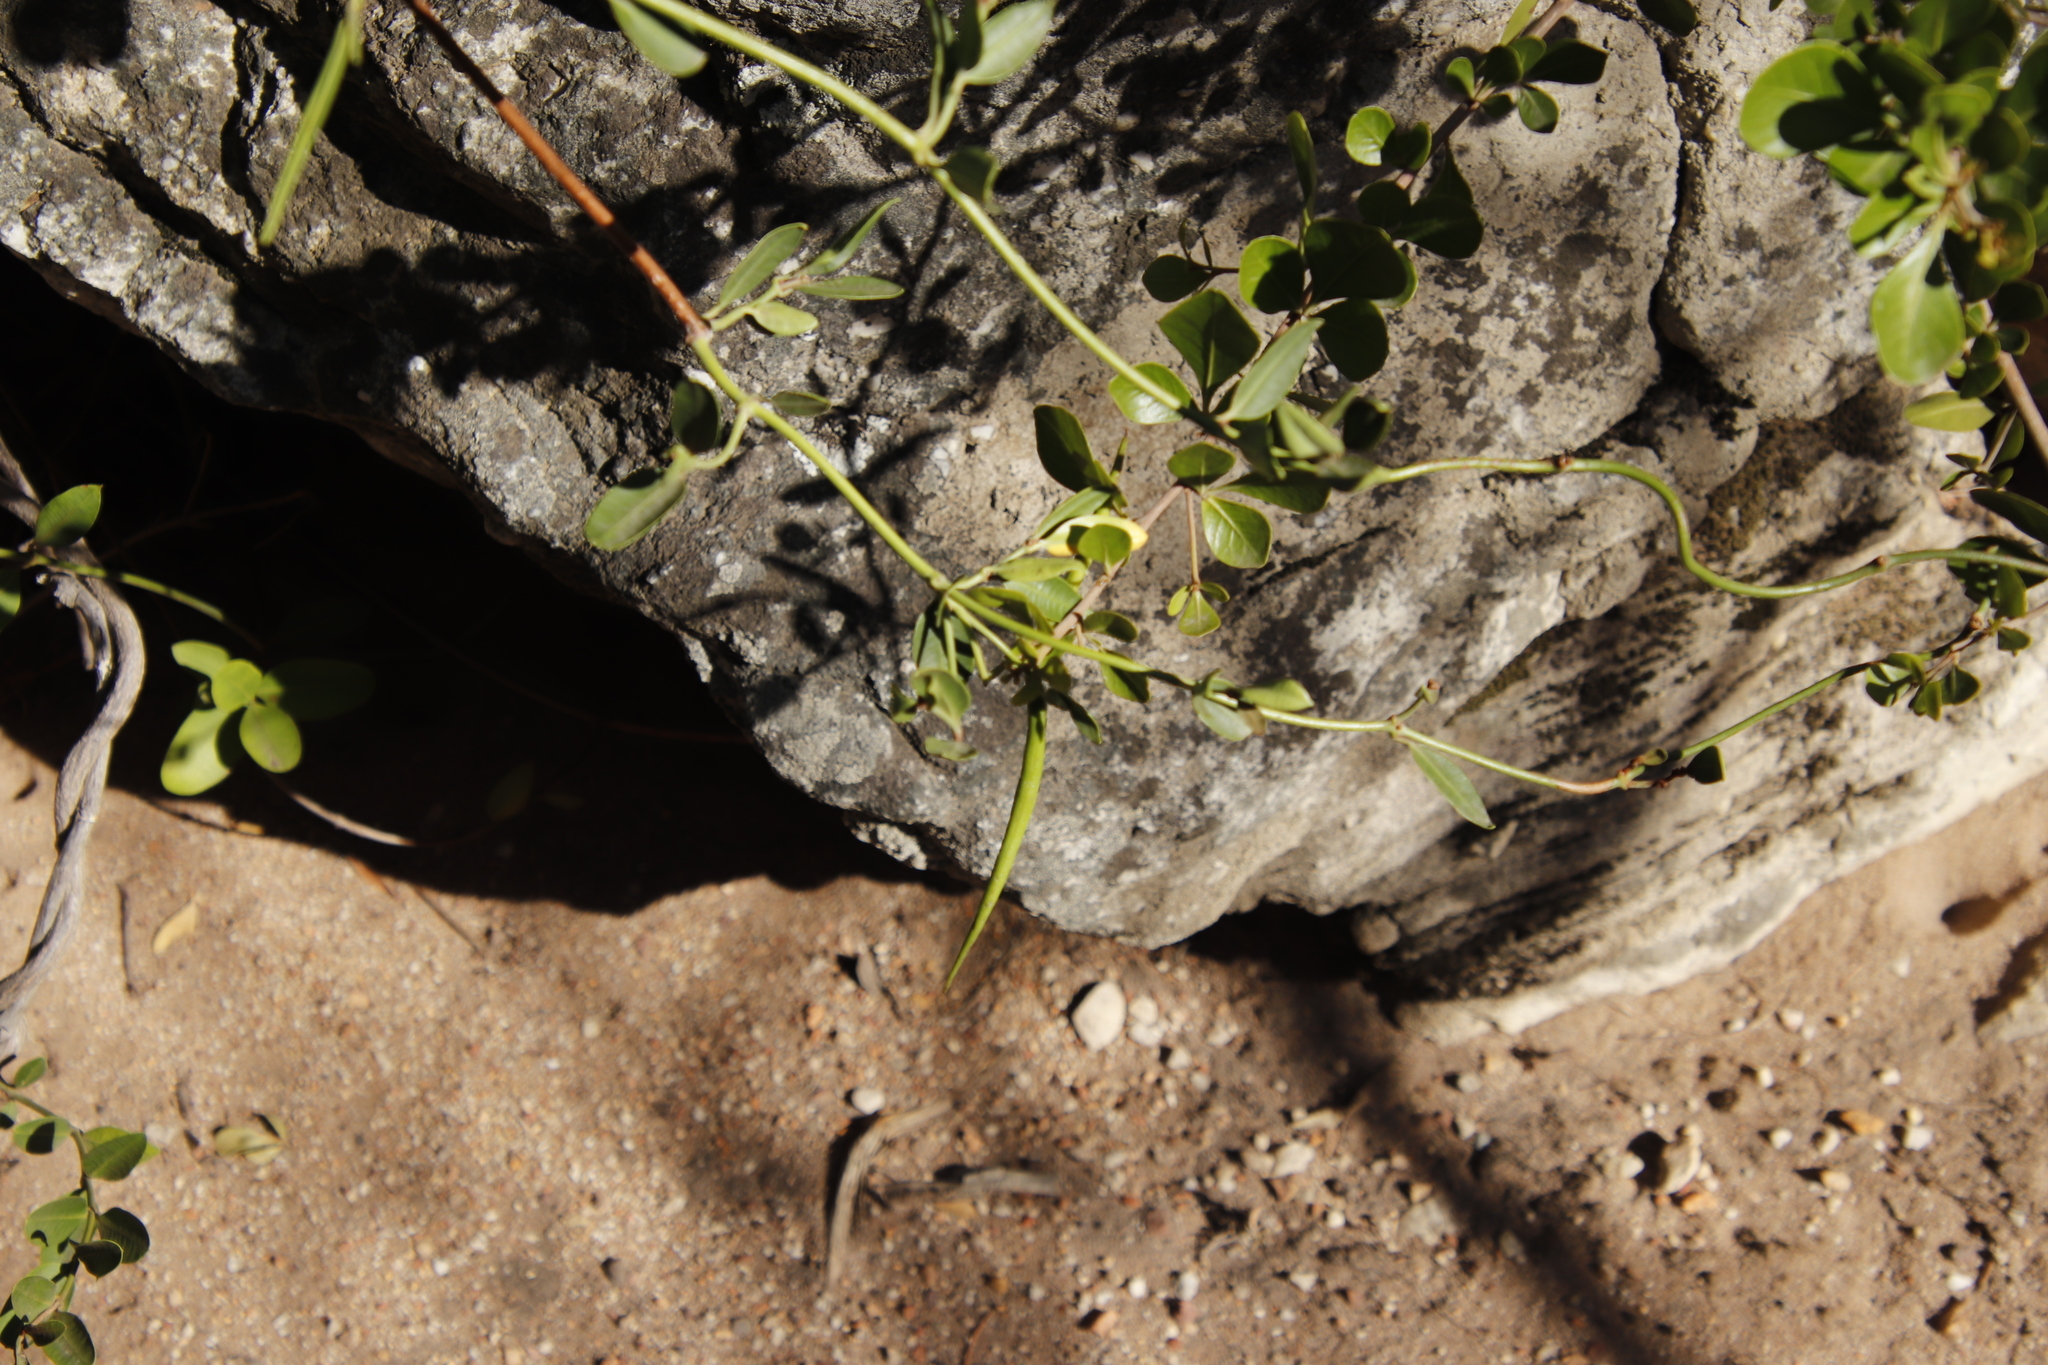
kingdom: Plantae
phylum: Tracheophyta
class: Magnoliopsida
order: Gentianales
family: Apocynaceae
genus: Secamone
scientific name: Secamone alpini
